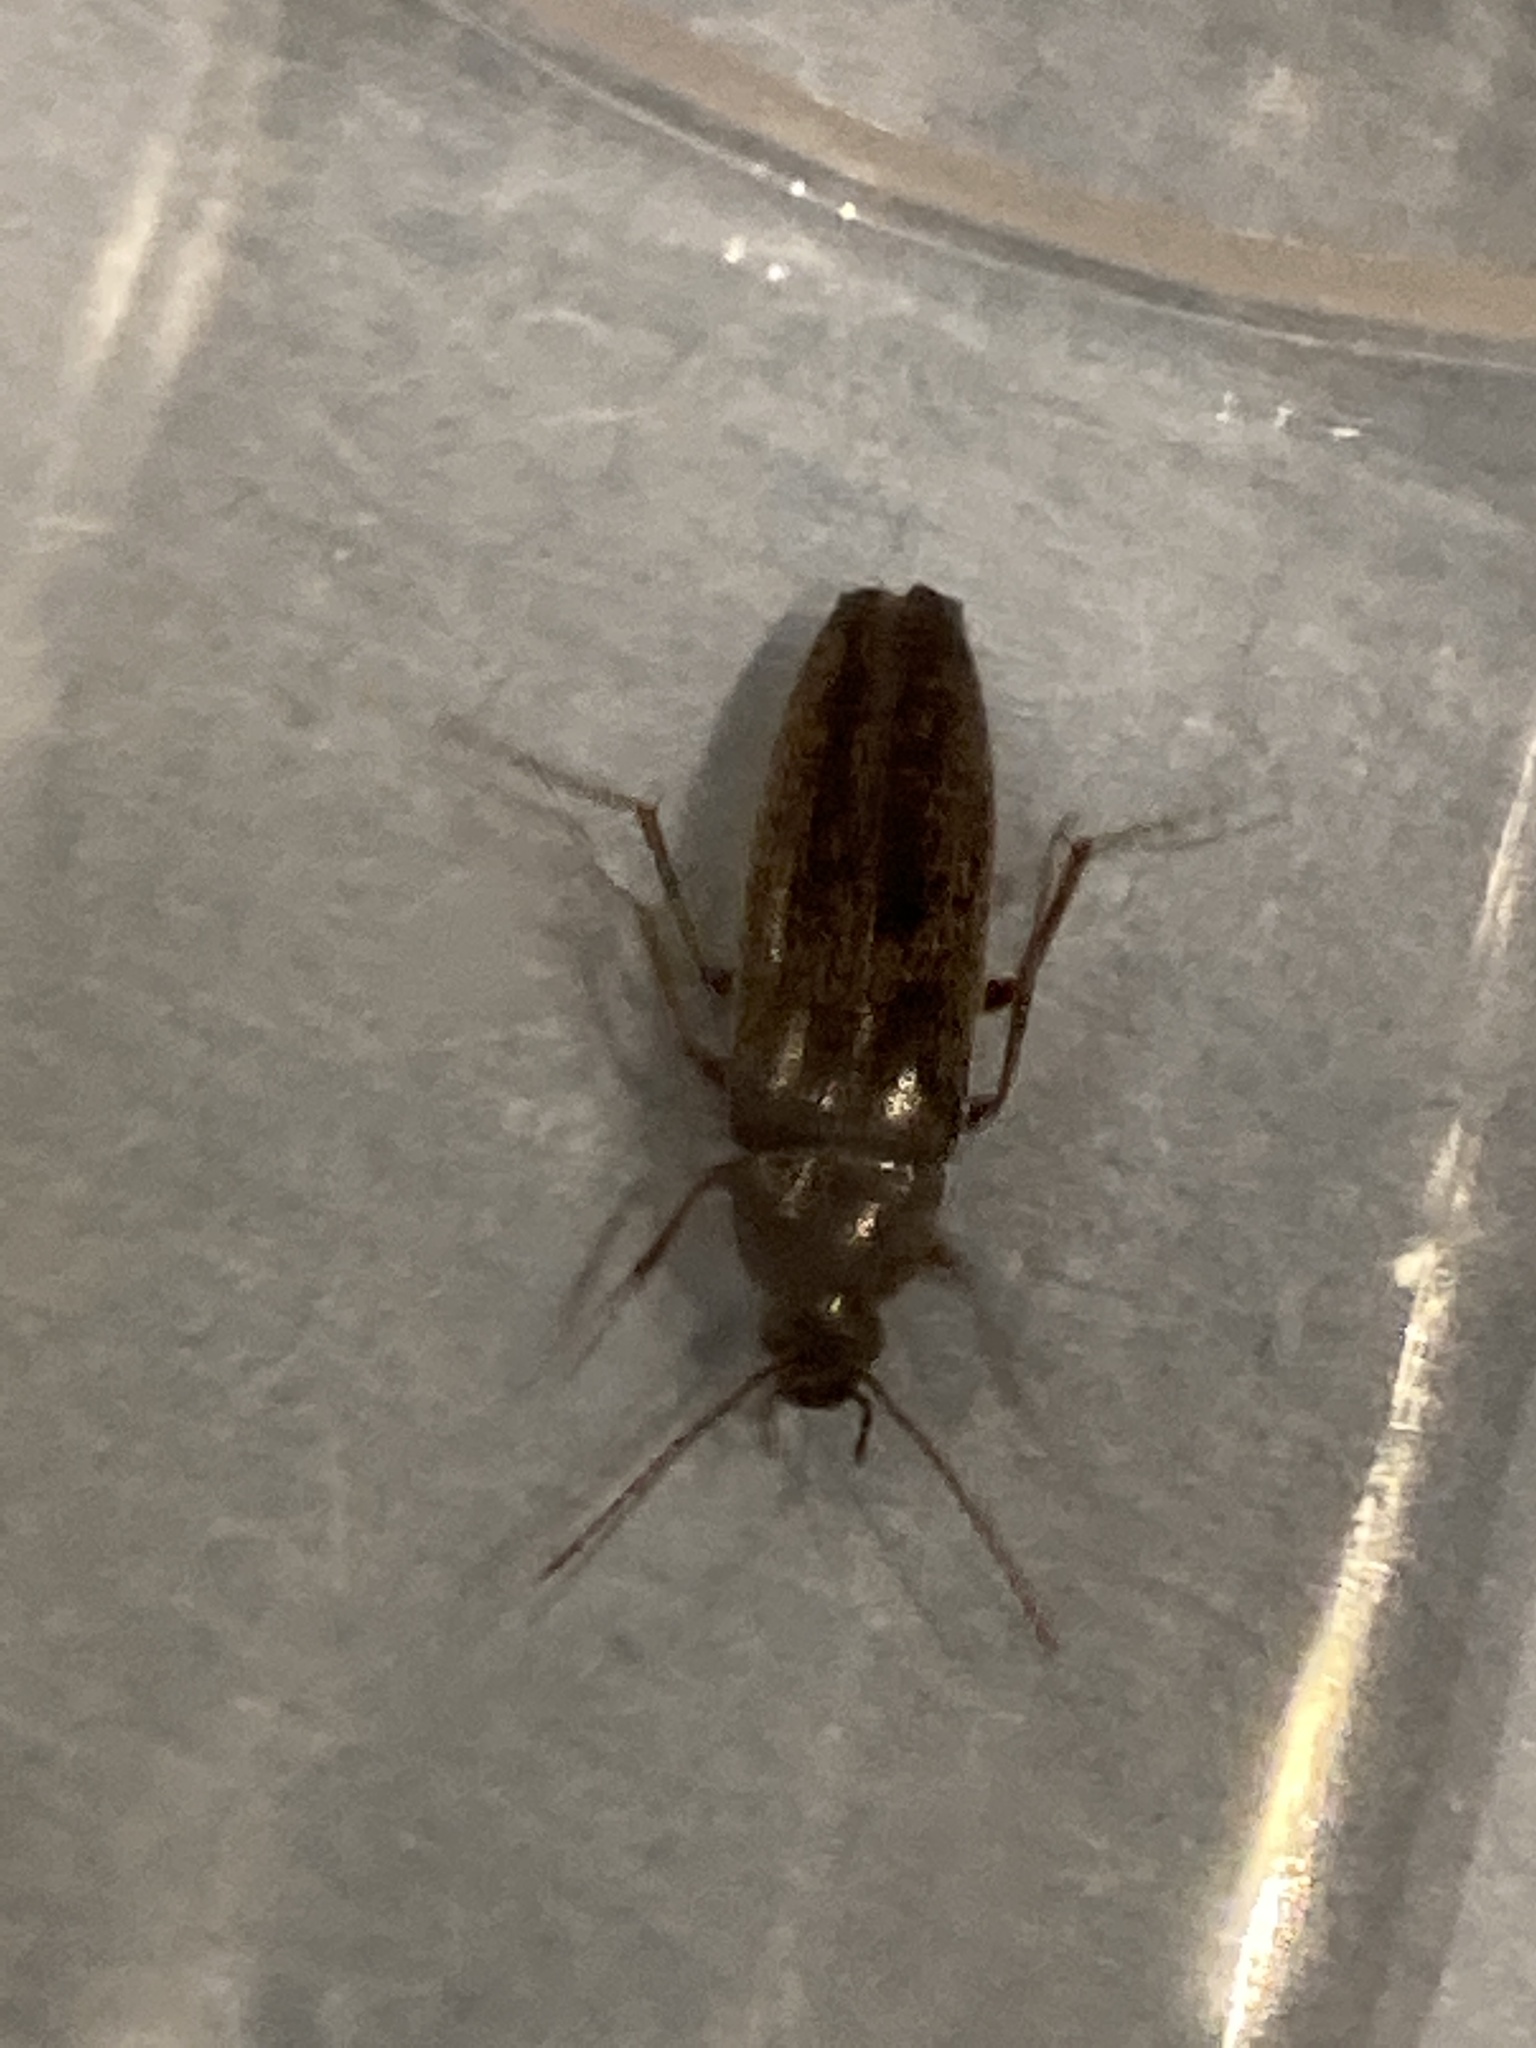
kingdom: Animalia
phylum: Arthropoda
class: Insecta
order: Coleoptera
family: Synchroidae
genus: Synchroa
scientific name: Synchroa punctata
